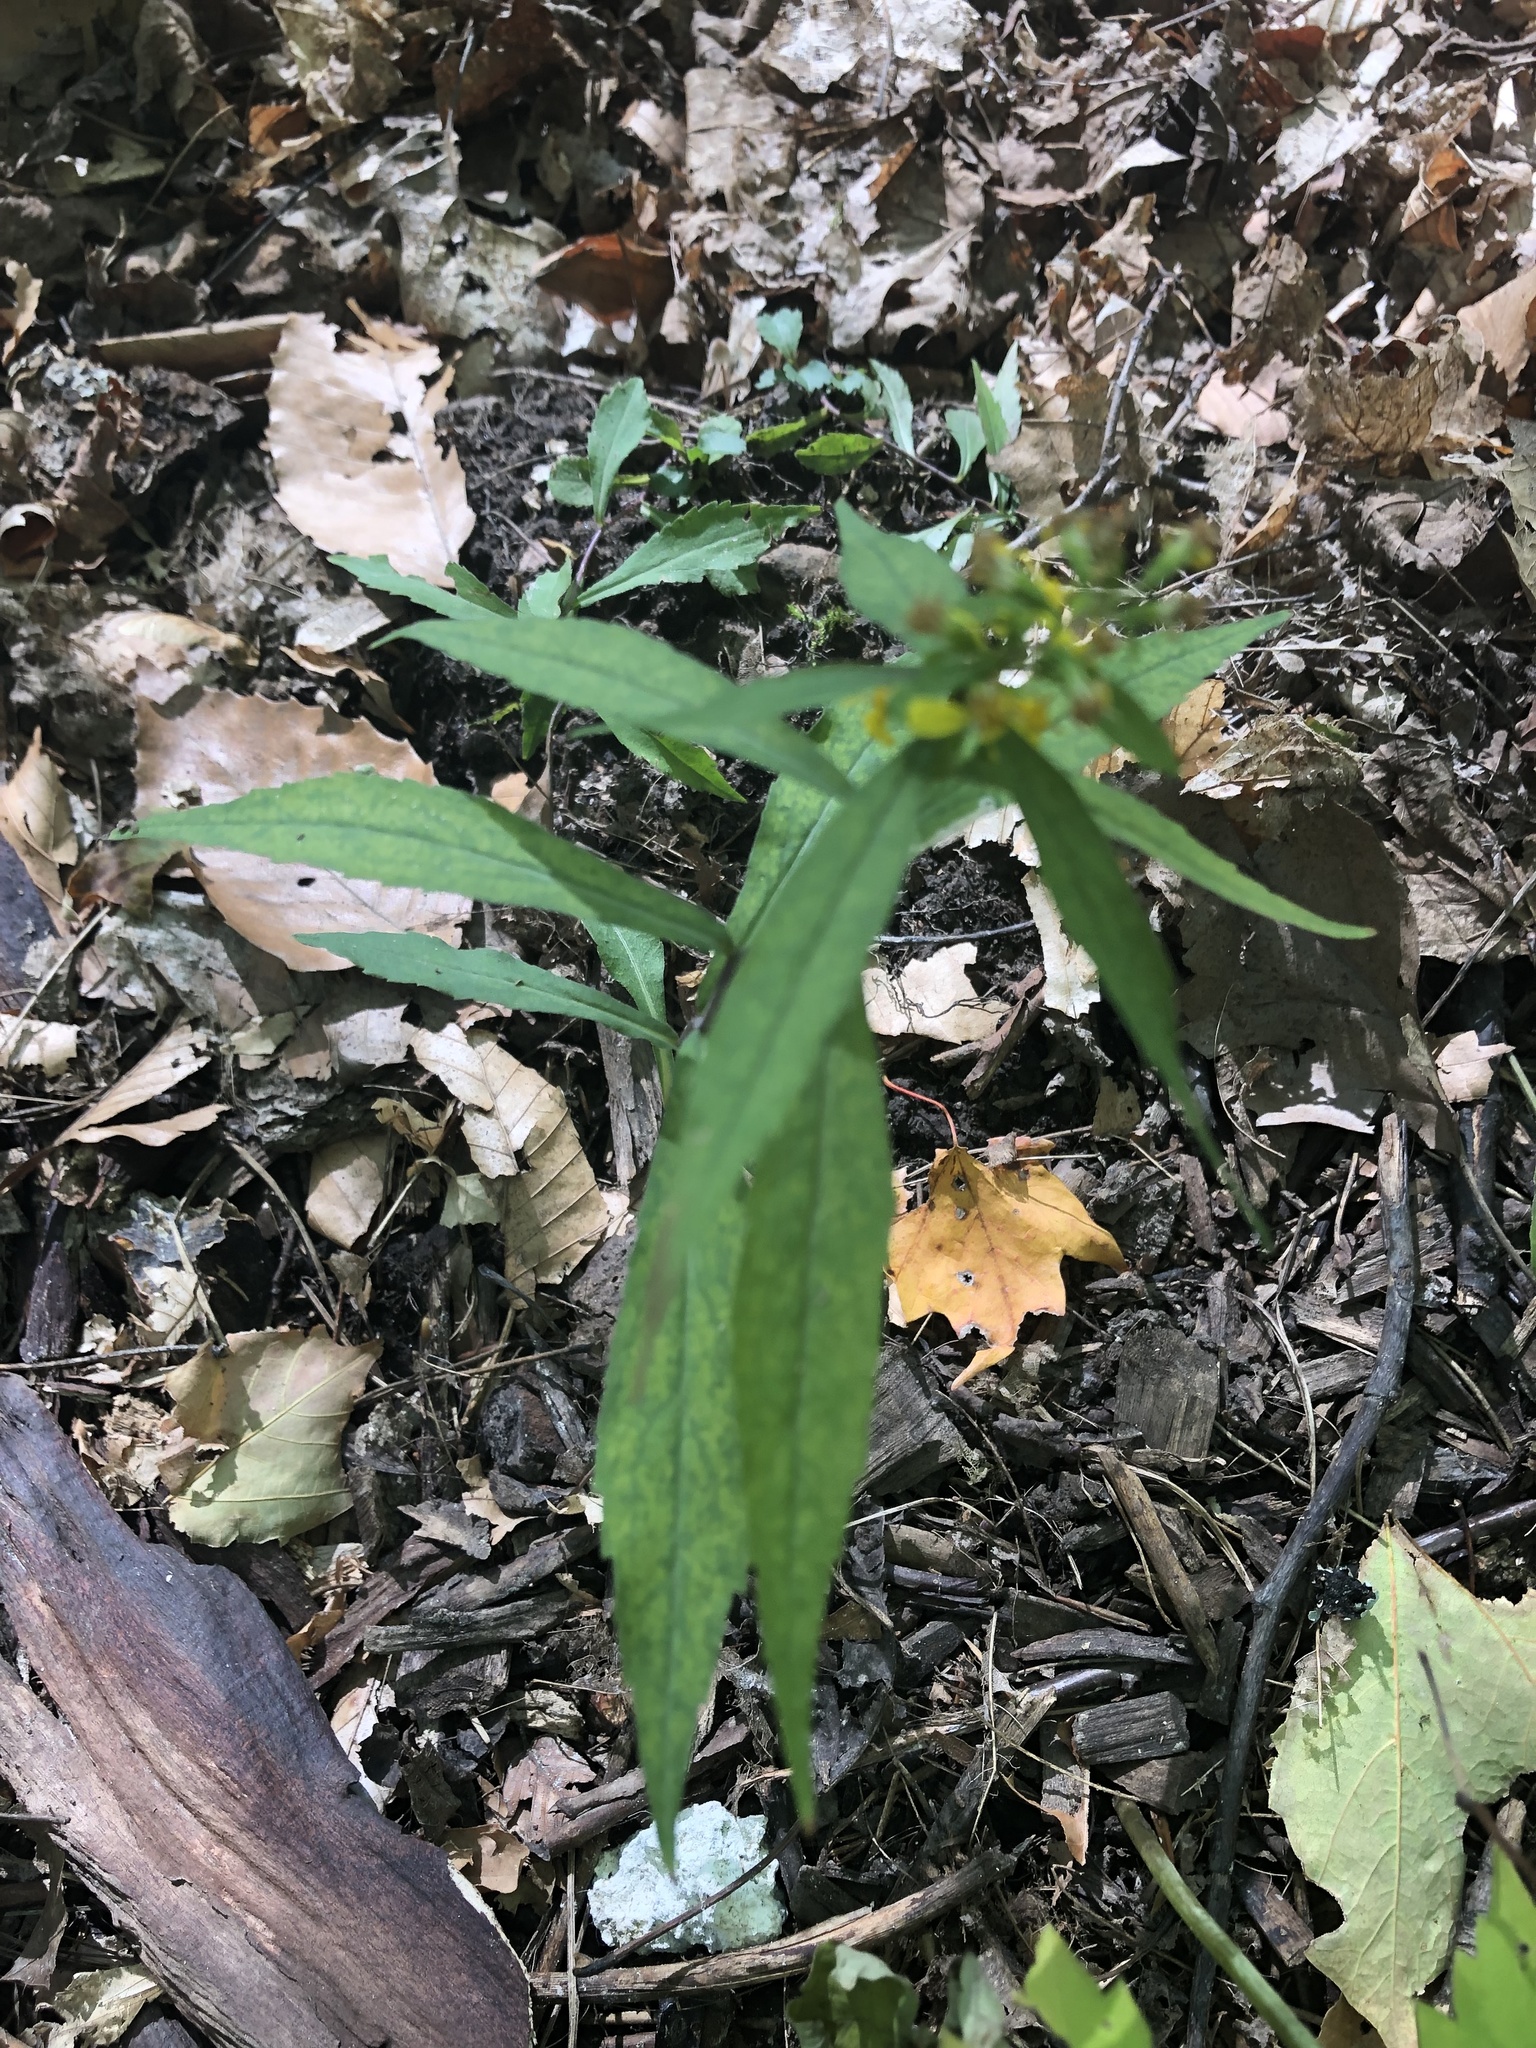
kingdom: Plantae
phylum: Tracheophyta
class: Magnoliopsida
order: Asterales
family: Asteraceae
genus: Solidago
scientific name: Solidago caesia
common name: Woodland goldenrod
